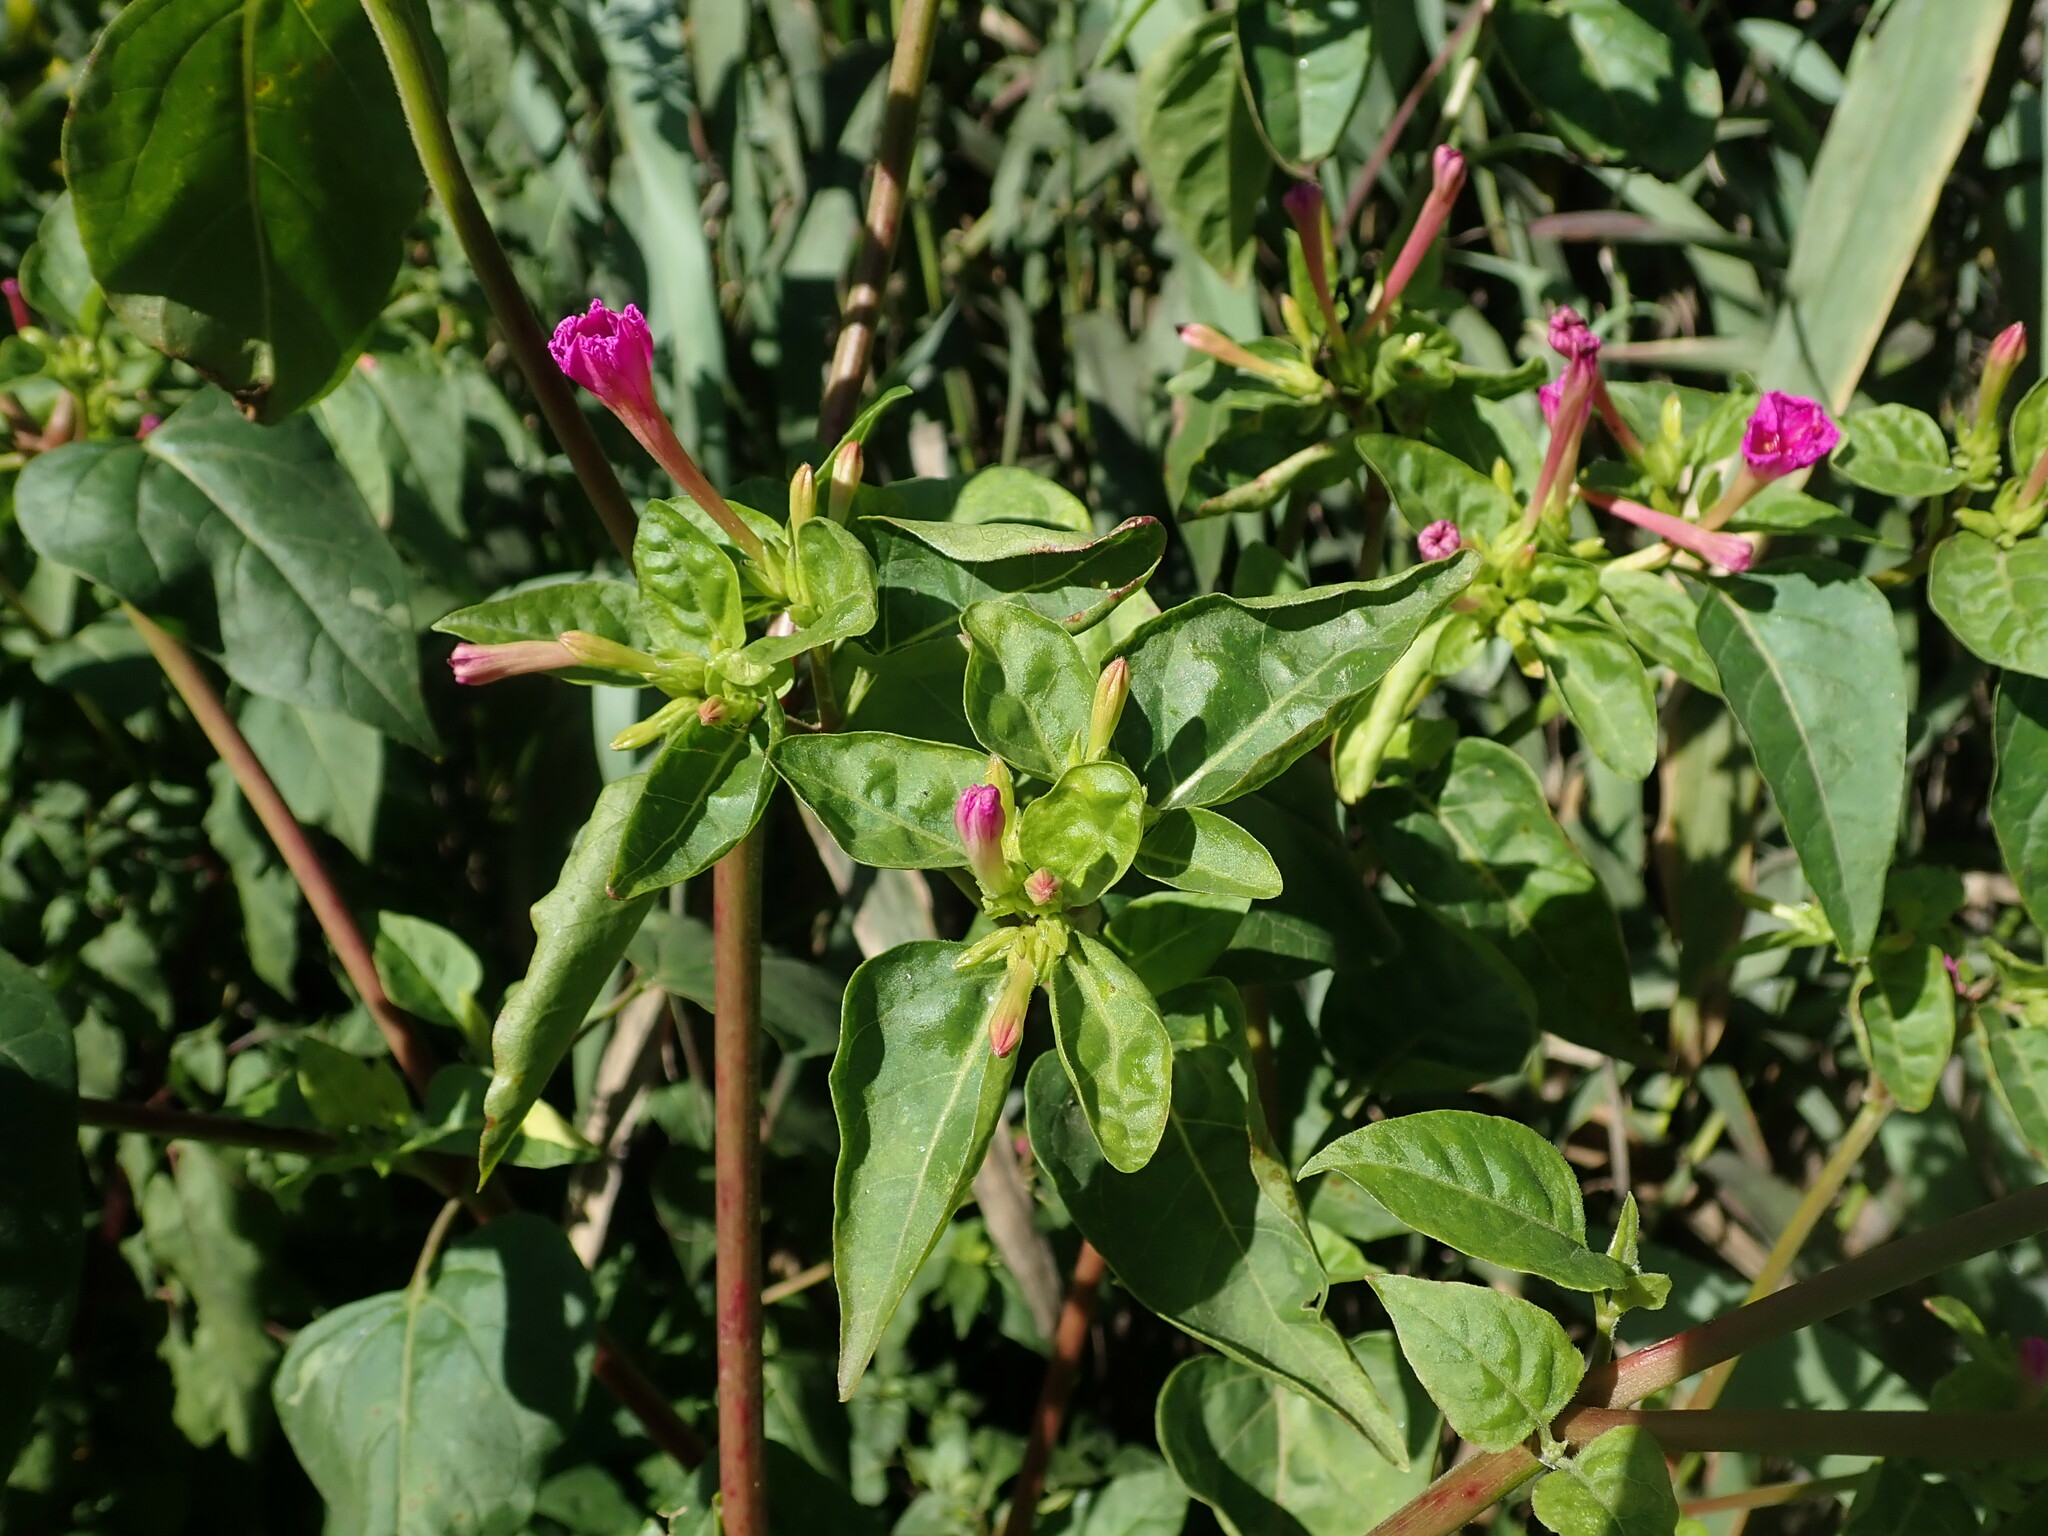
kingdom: Plantae
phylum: Tracheophyta
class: Magnoliopsida
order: Caryophyllales
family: Nyctaginaceae
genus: Mirabilis
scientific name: Mirabilis jalapa
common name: Marvel-of-peru
